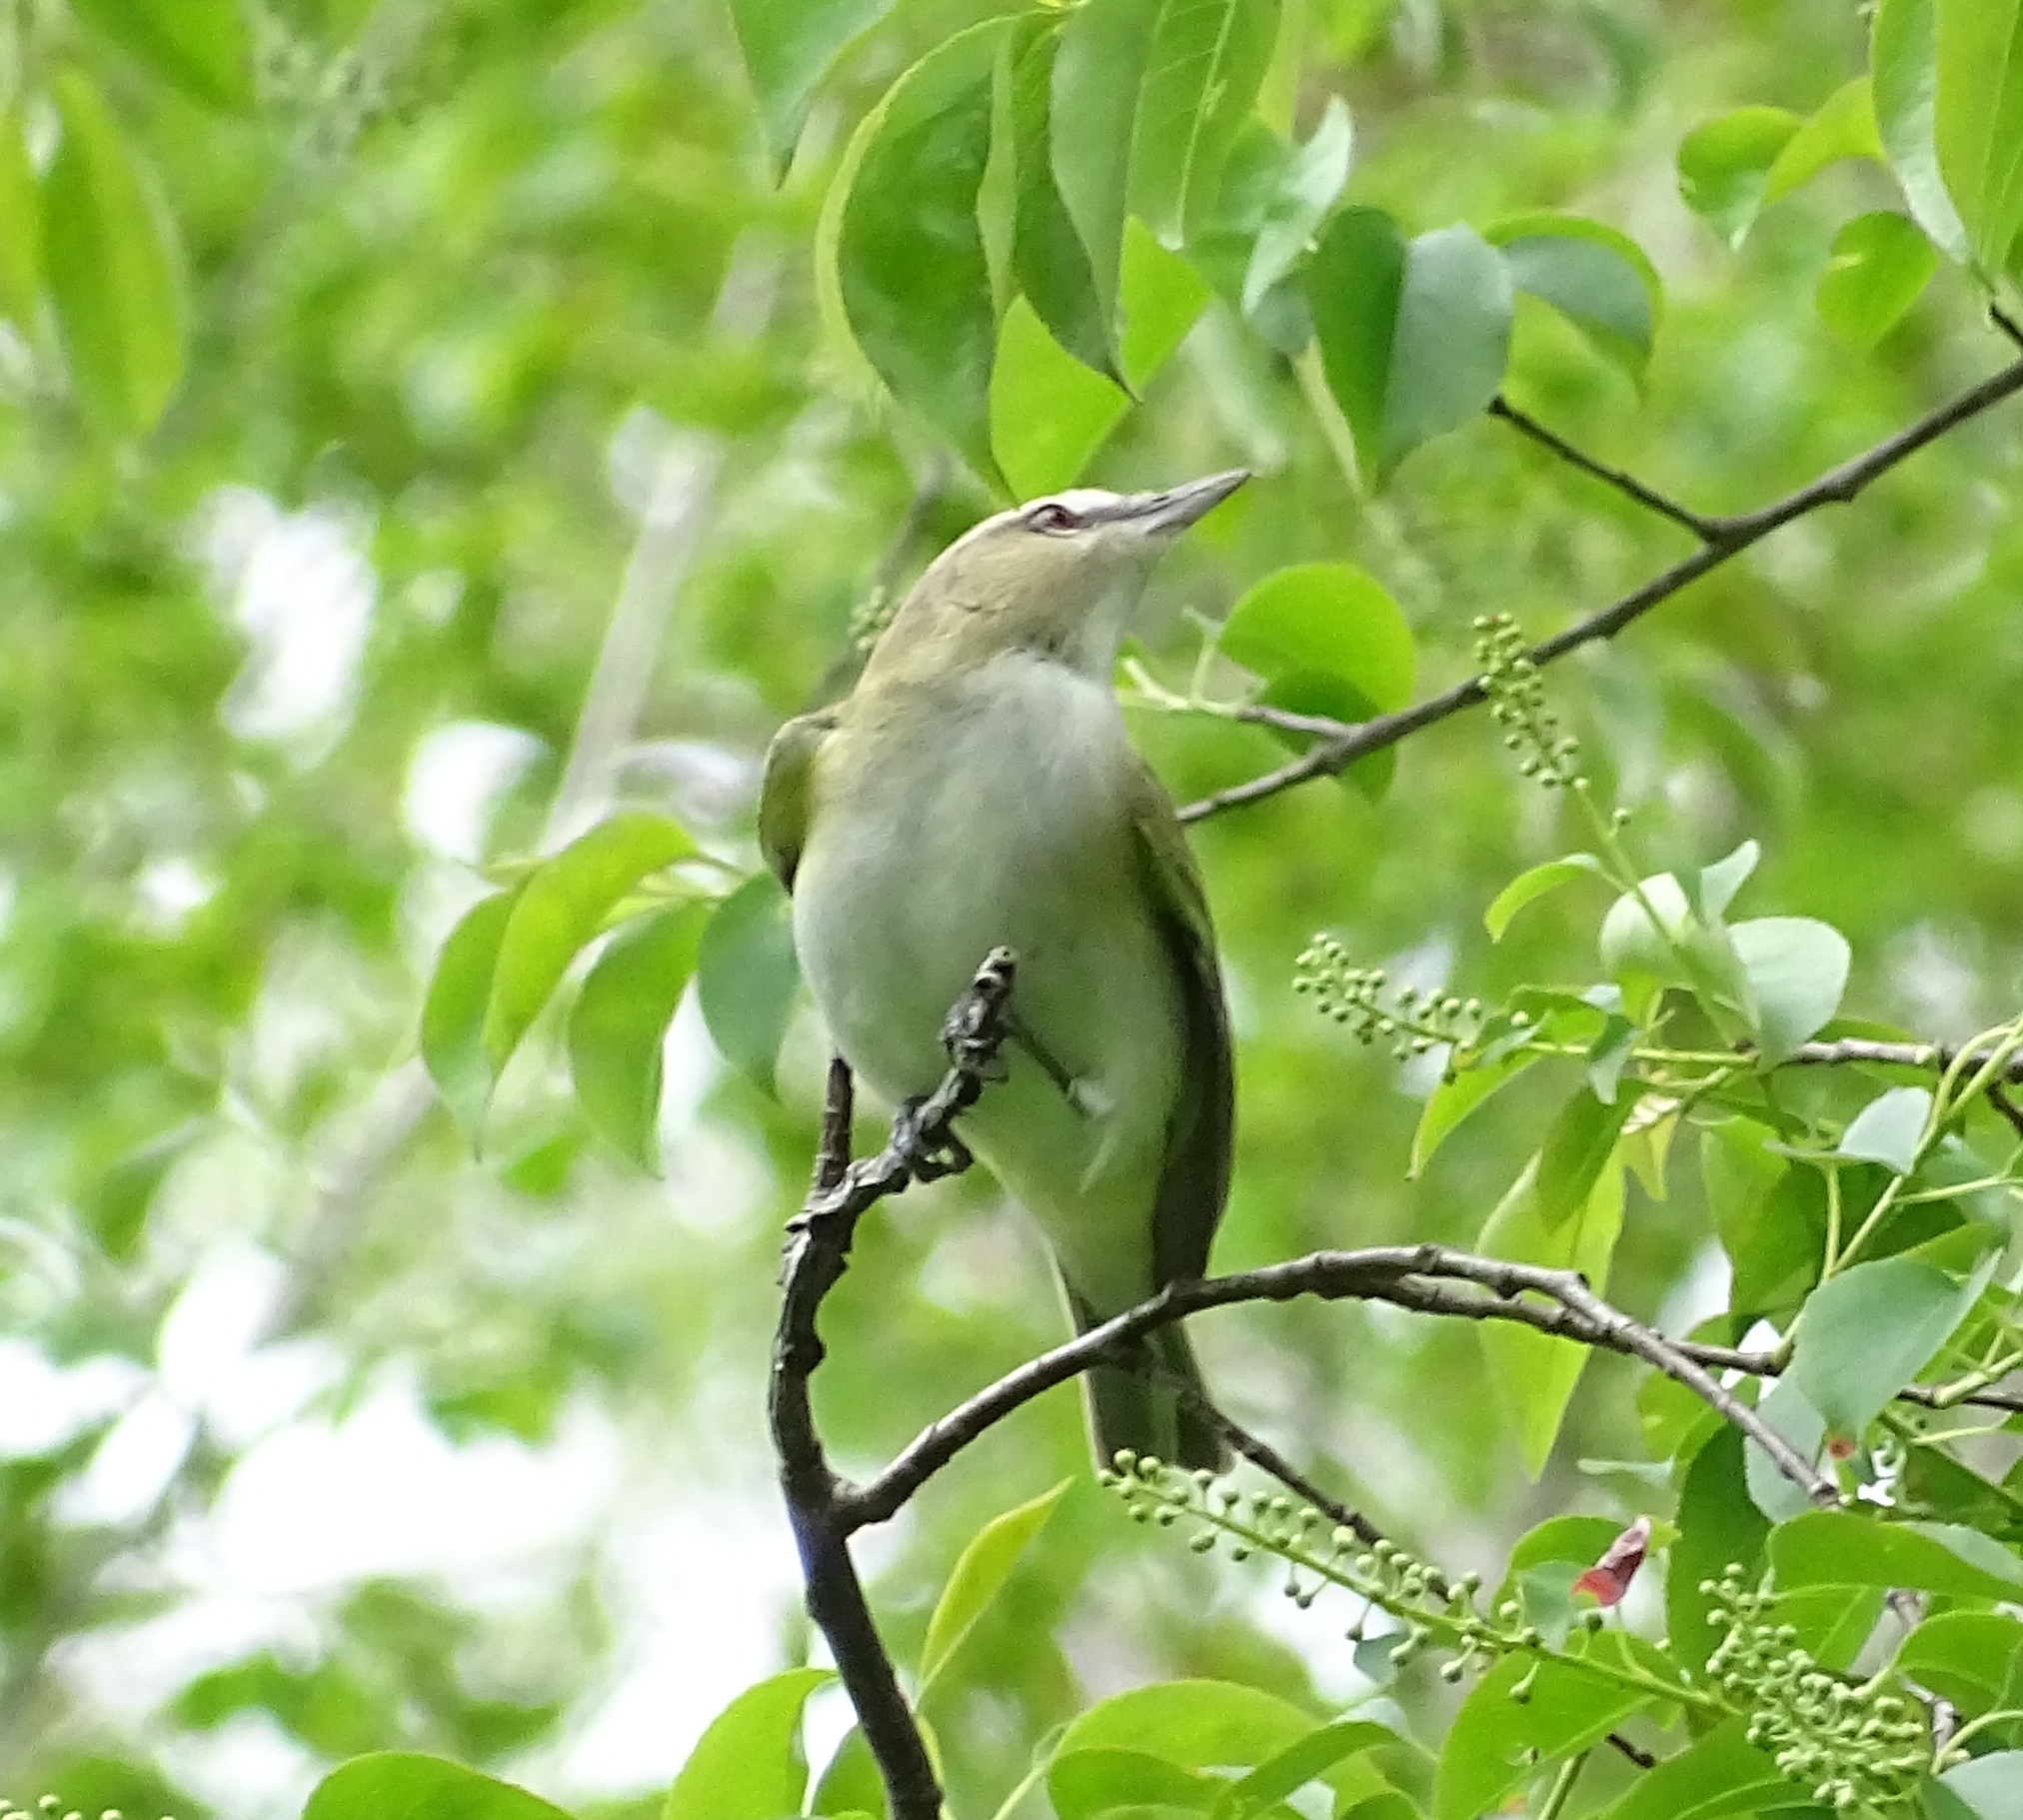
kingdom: Animalia
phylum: Chordata
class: Aves
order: Passeriformes
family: Vireonidae
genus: Vireo
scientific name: Vireo olivaceus
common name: Red-eyed vireo
